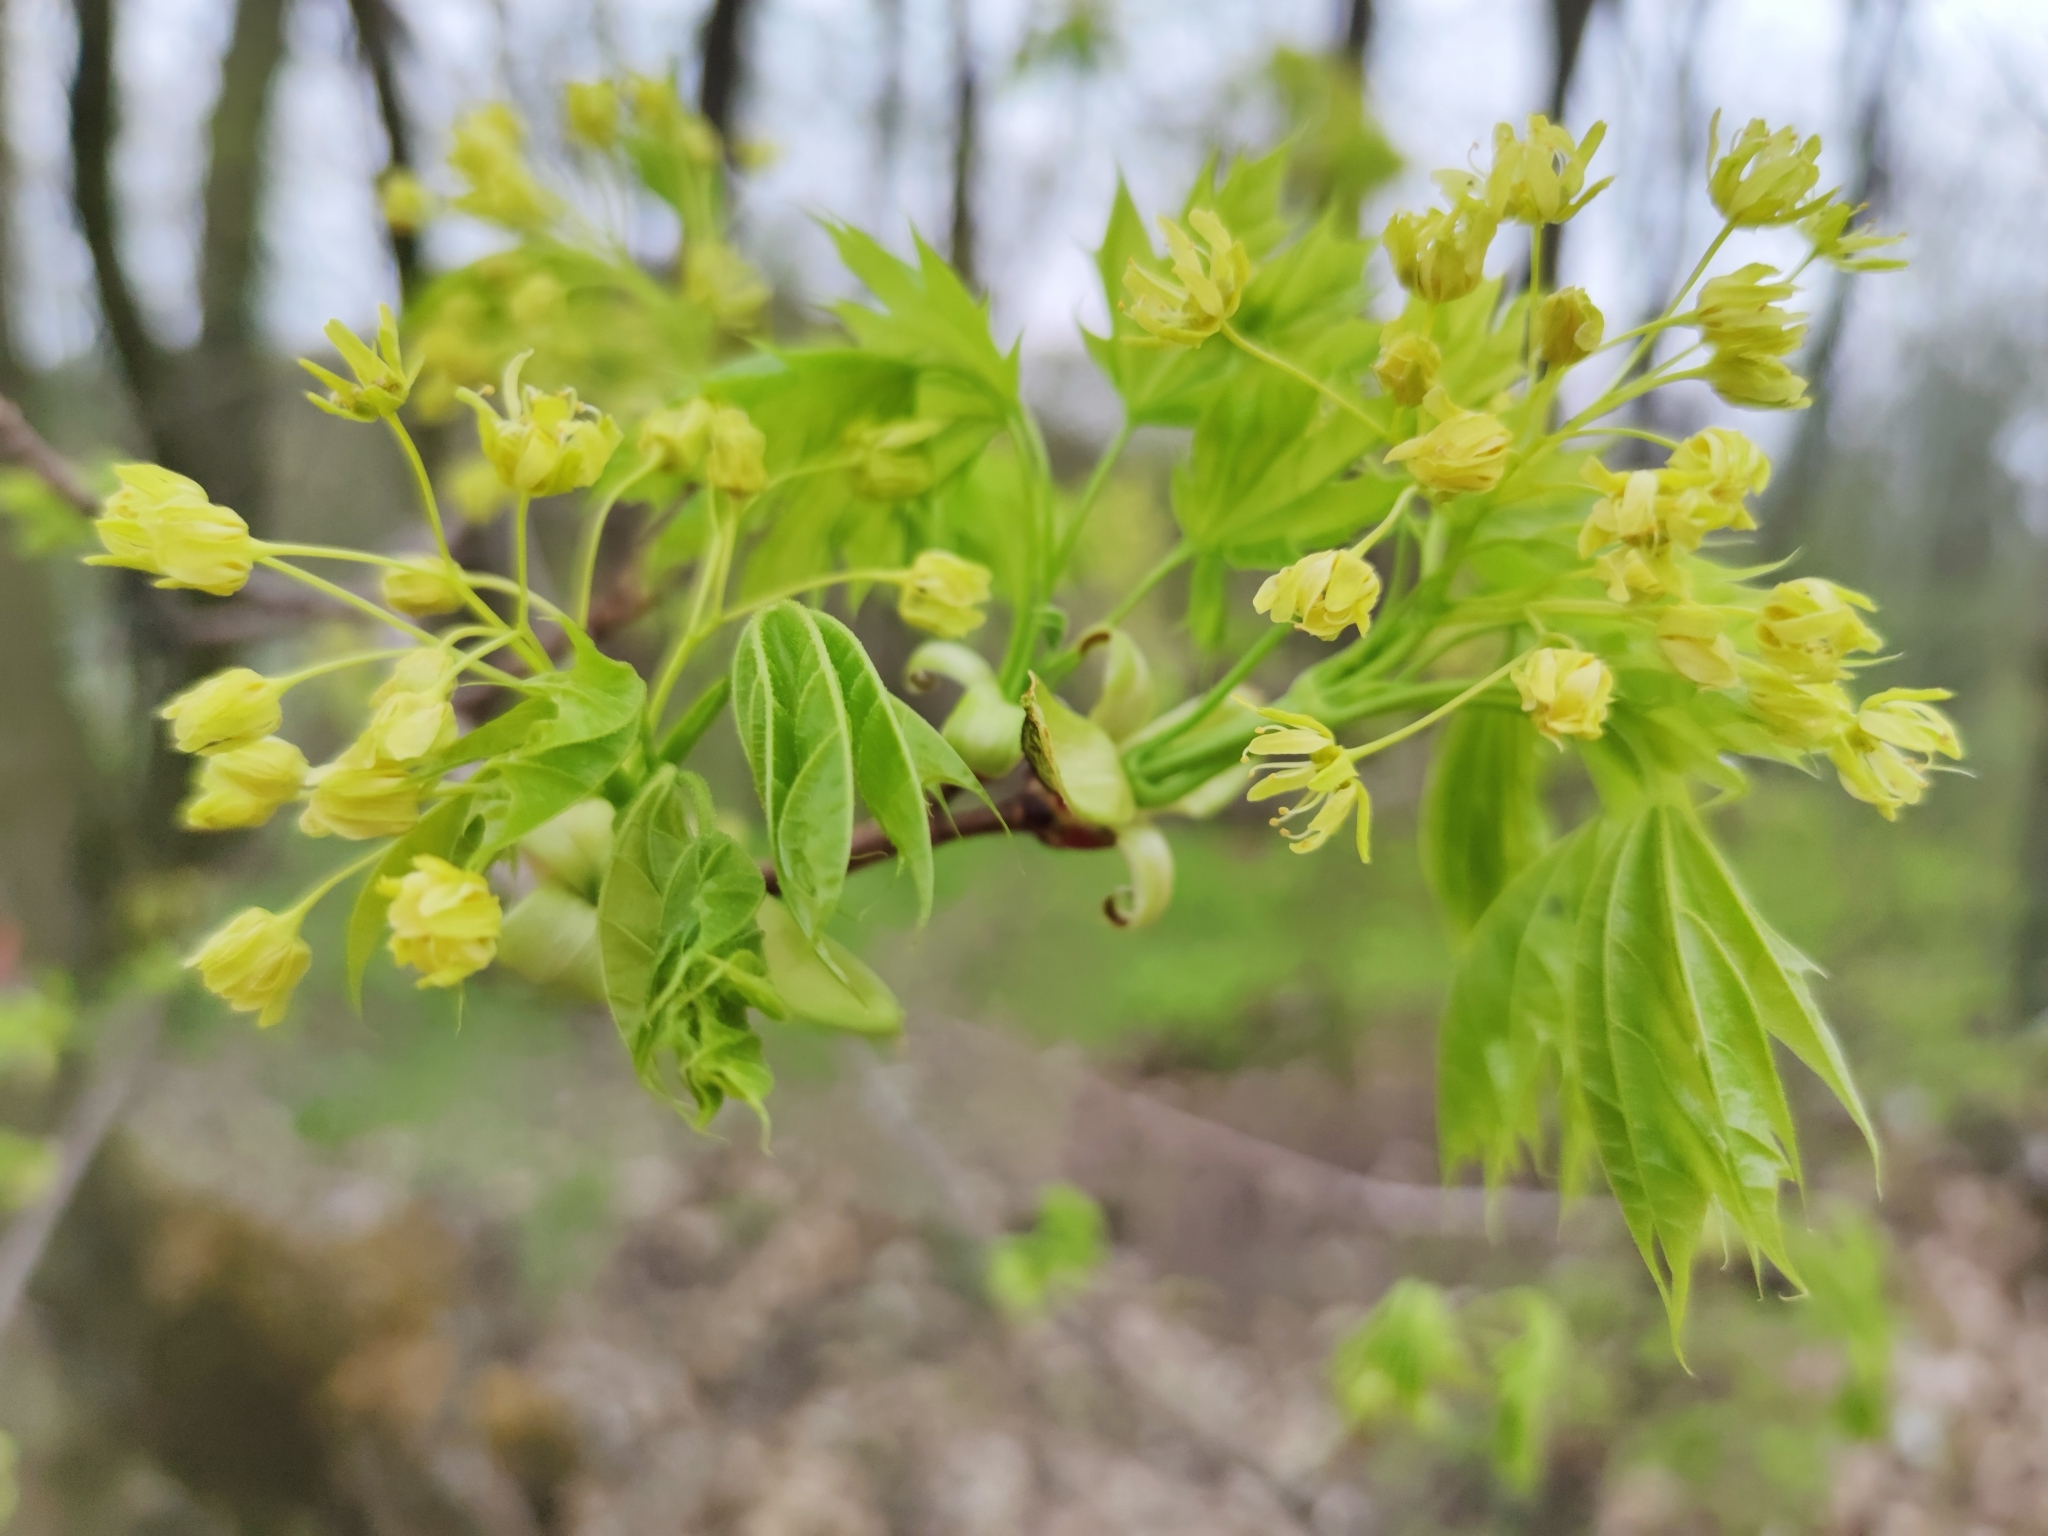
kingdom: Plantae
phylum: Tracheophyta
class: Magnoliopsida
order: Sapindales
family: Sapindaceae
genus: Acer
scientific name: Acer platanoides
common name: Norway maple
